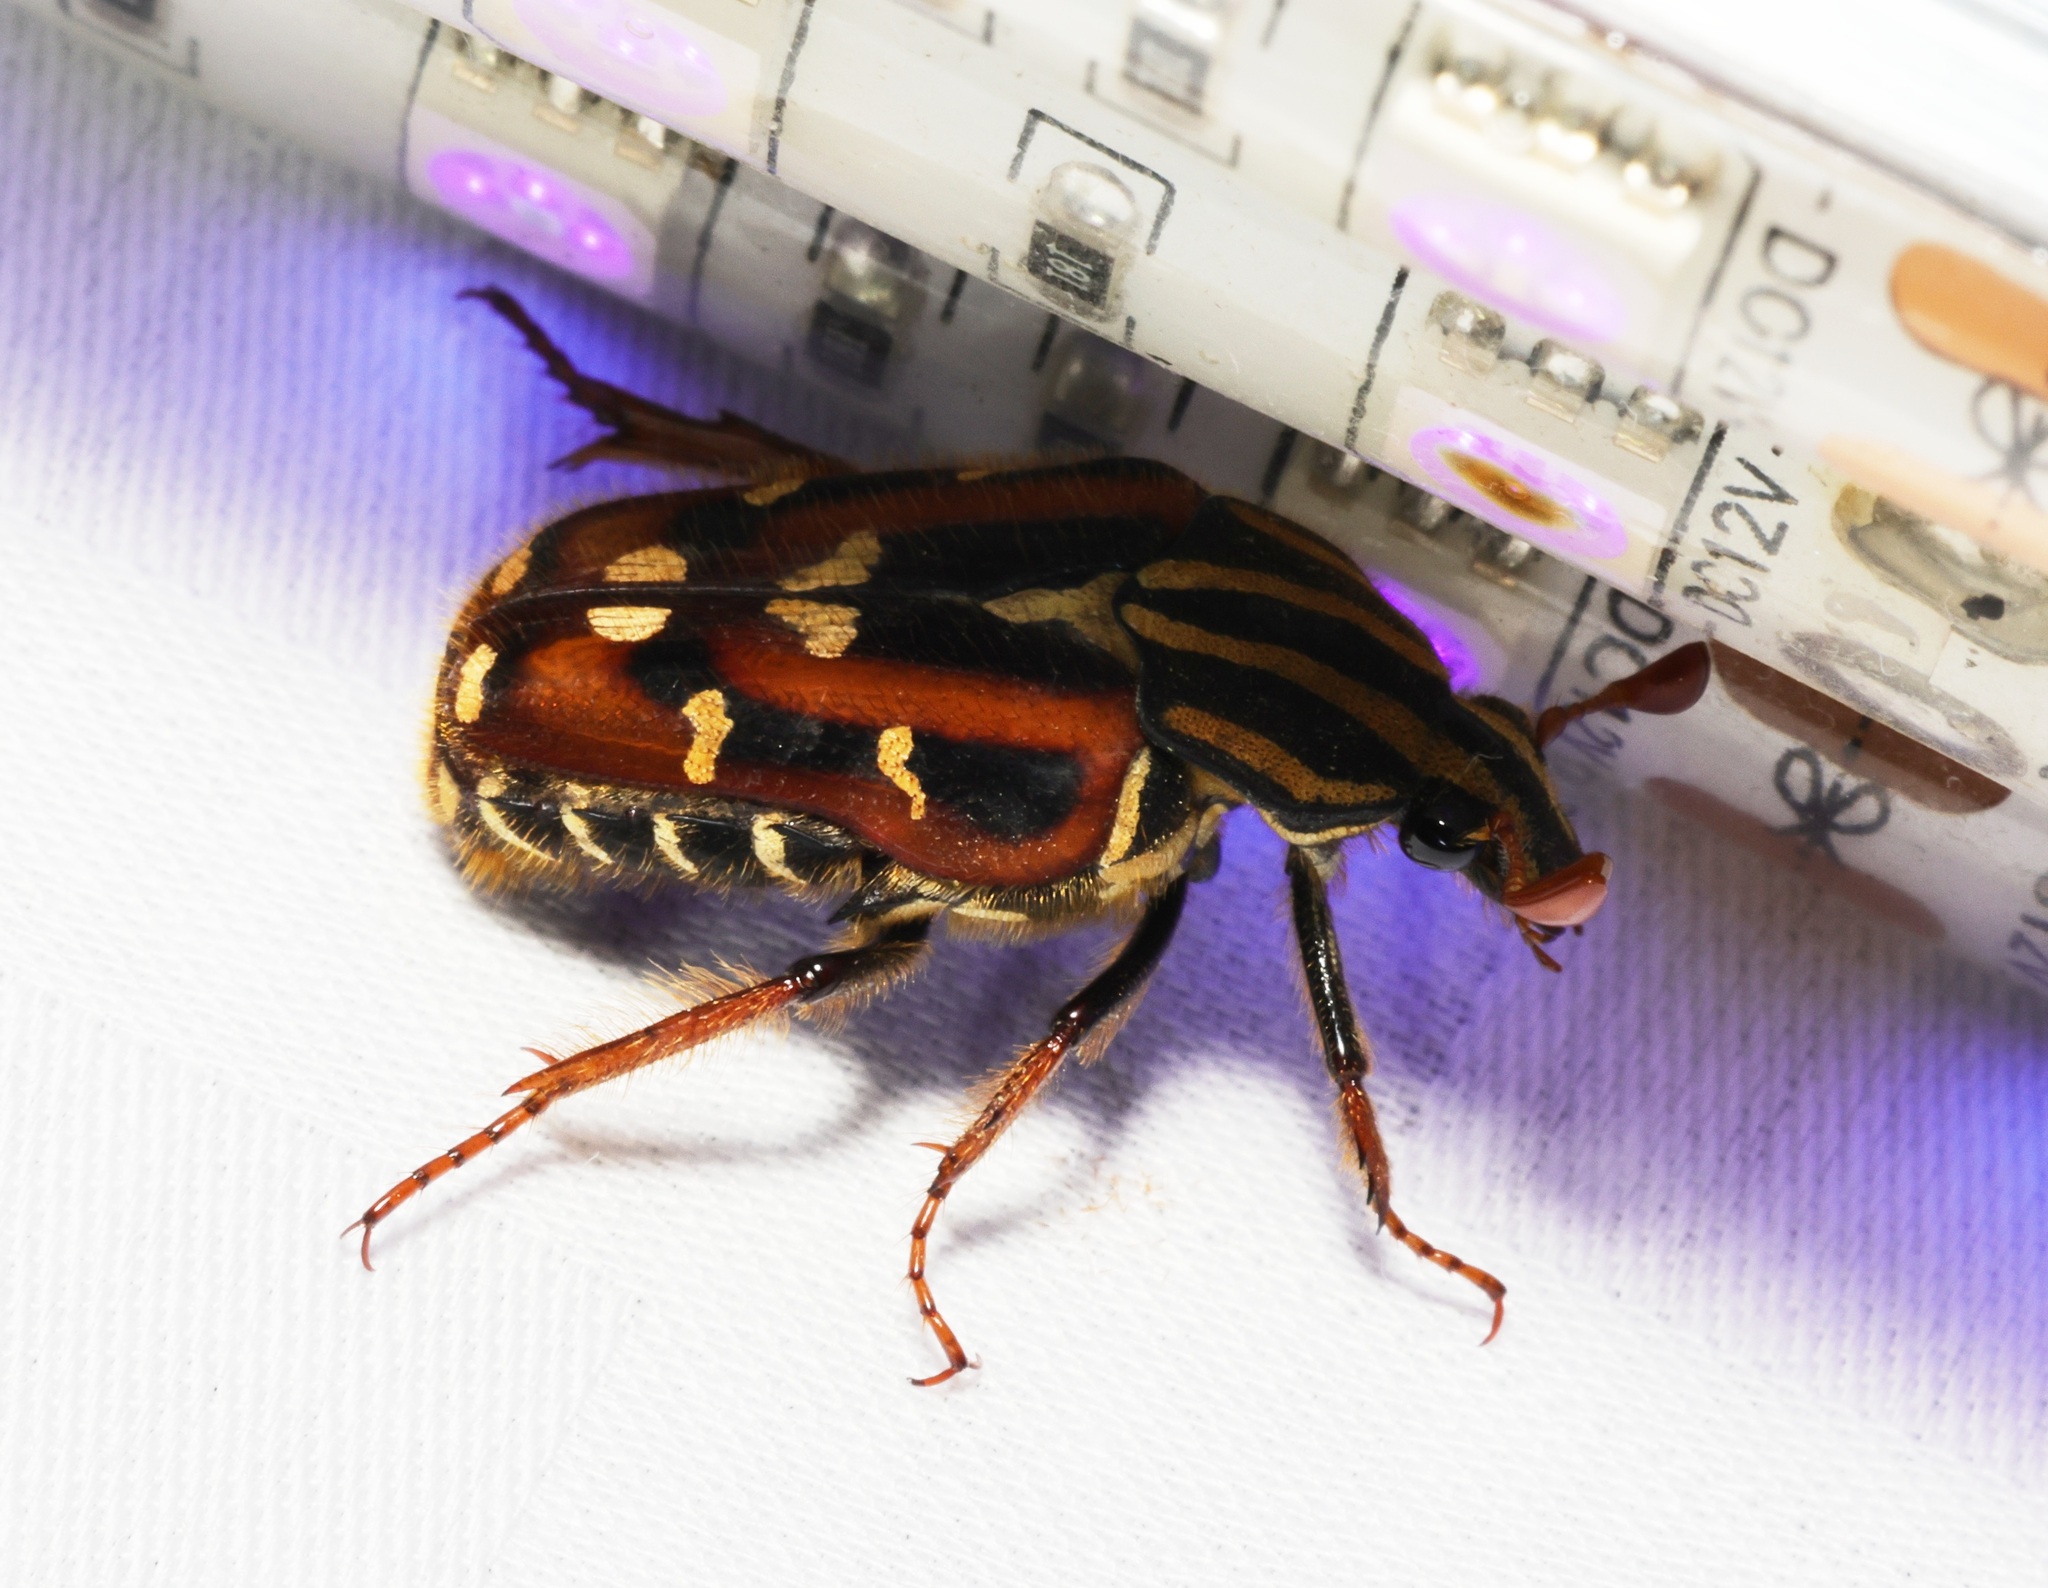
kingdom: Animalia
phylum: Arthropoda
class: Insecta
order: Coleoptera
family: Scarabaeidae
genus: Euselates
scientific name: Euselates magna
